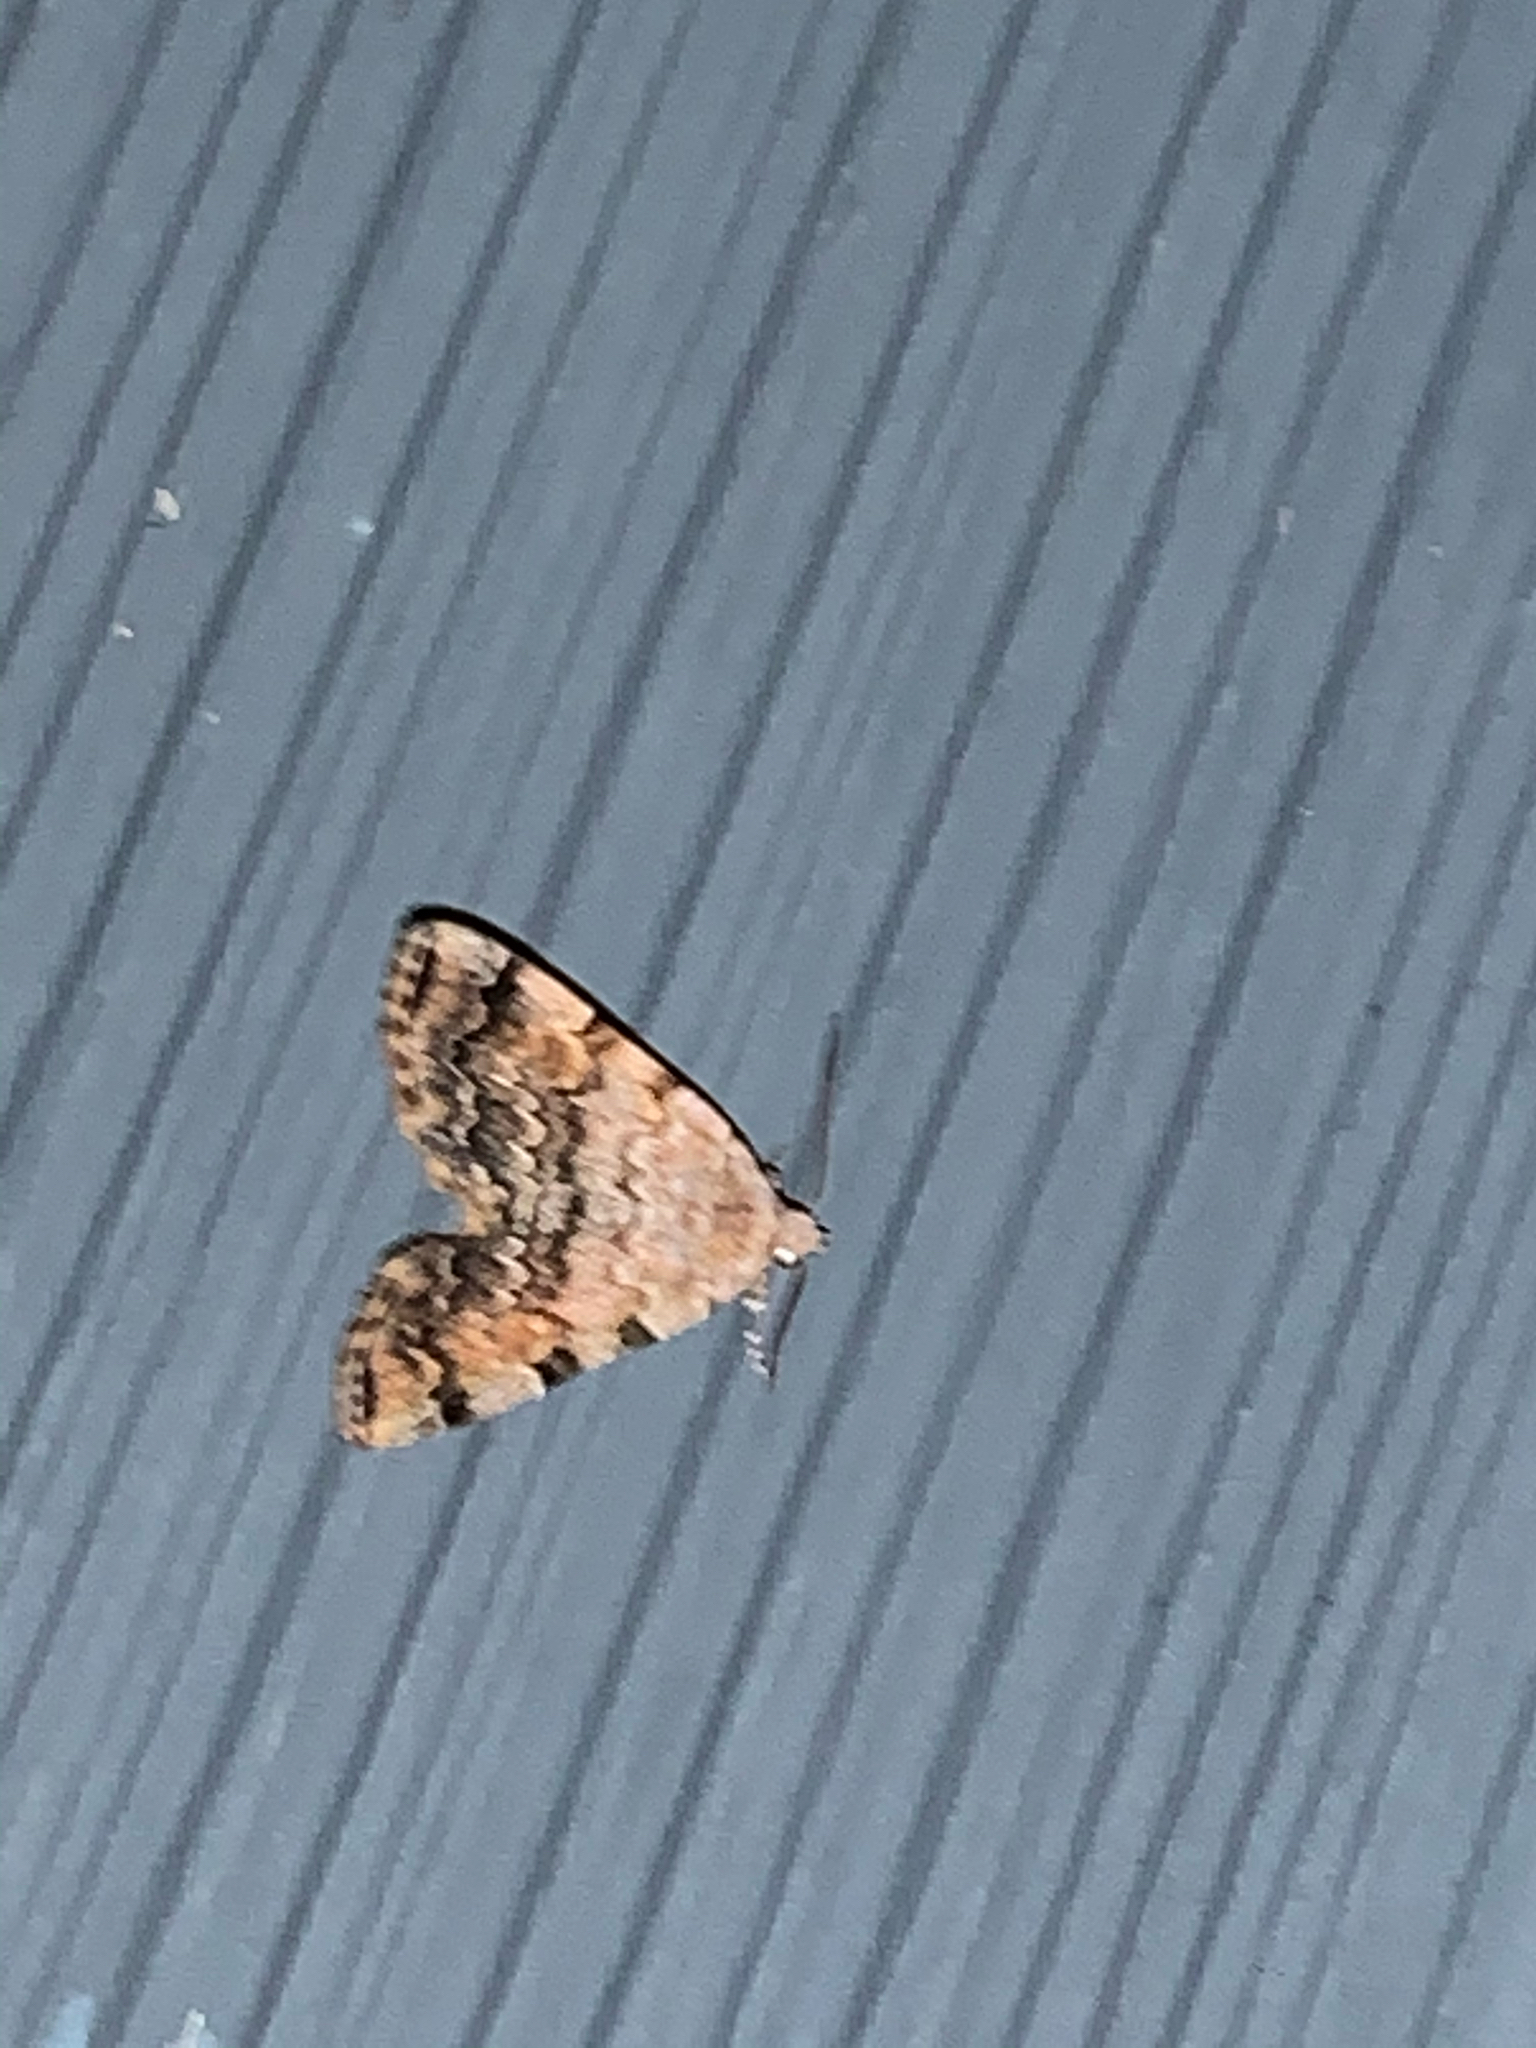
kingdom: Animalia
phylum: Arthropoda
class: Insecta
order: Lepidoptera
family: Erebidae
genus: Idia
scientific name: Idia americalis
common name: American idia moth
